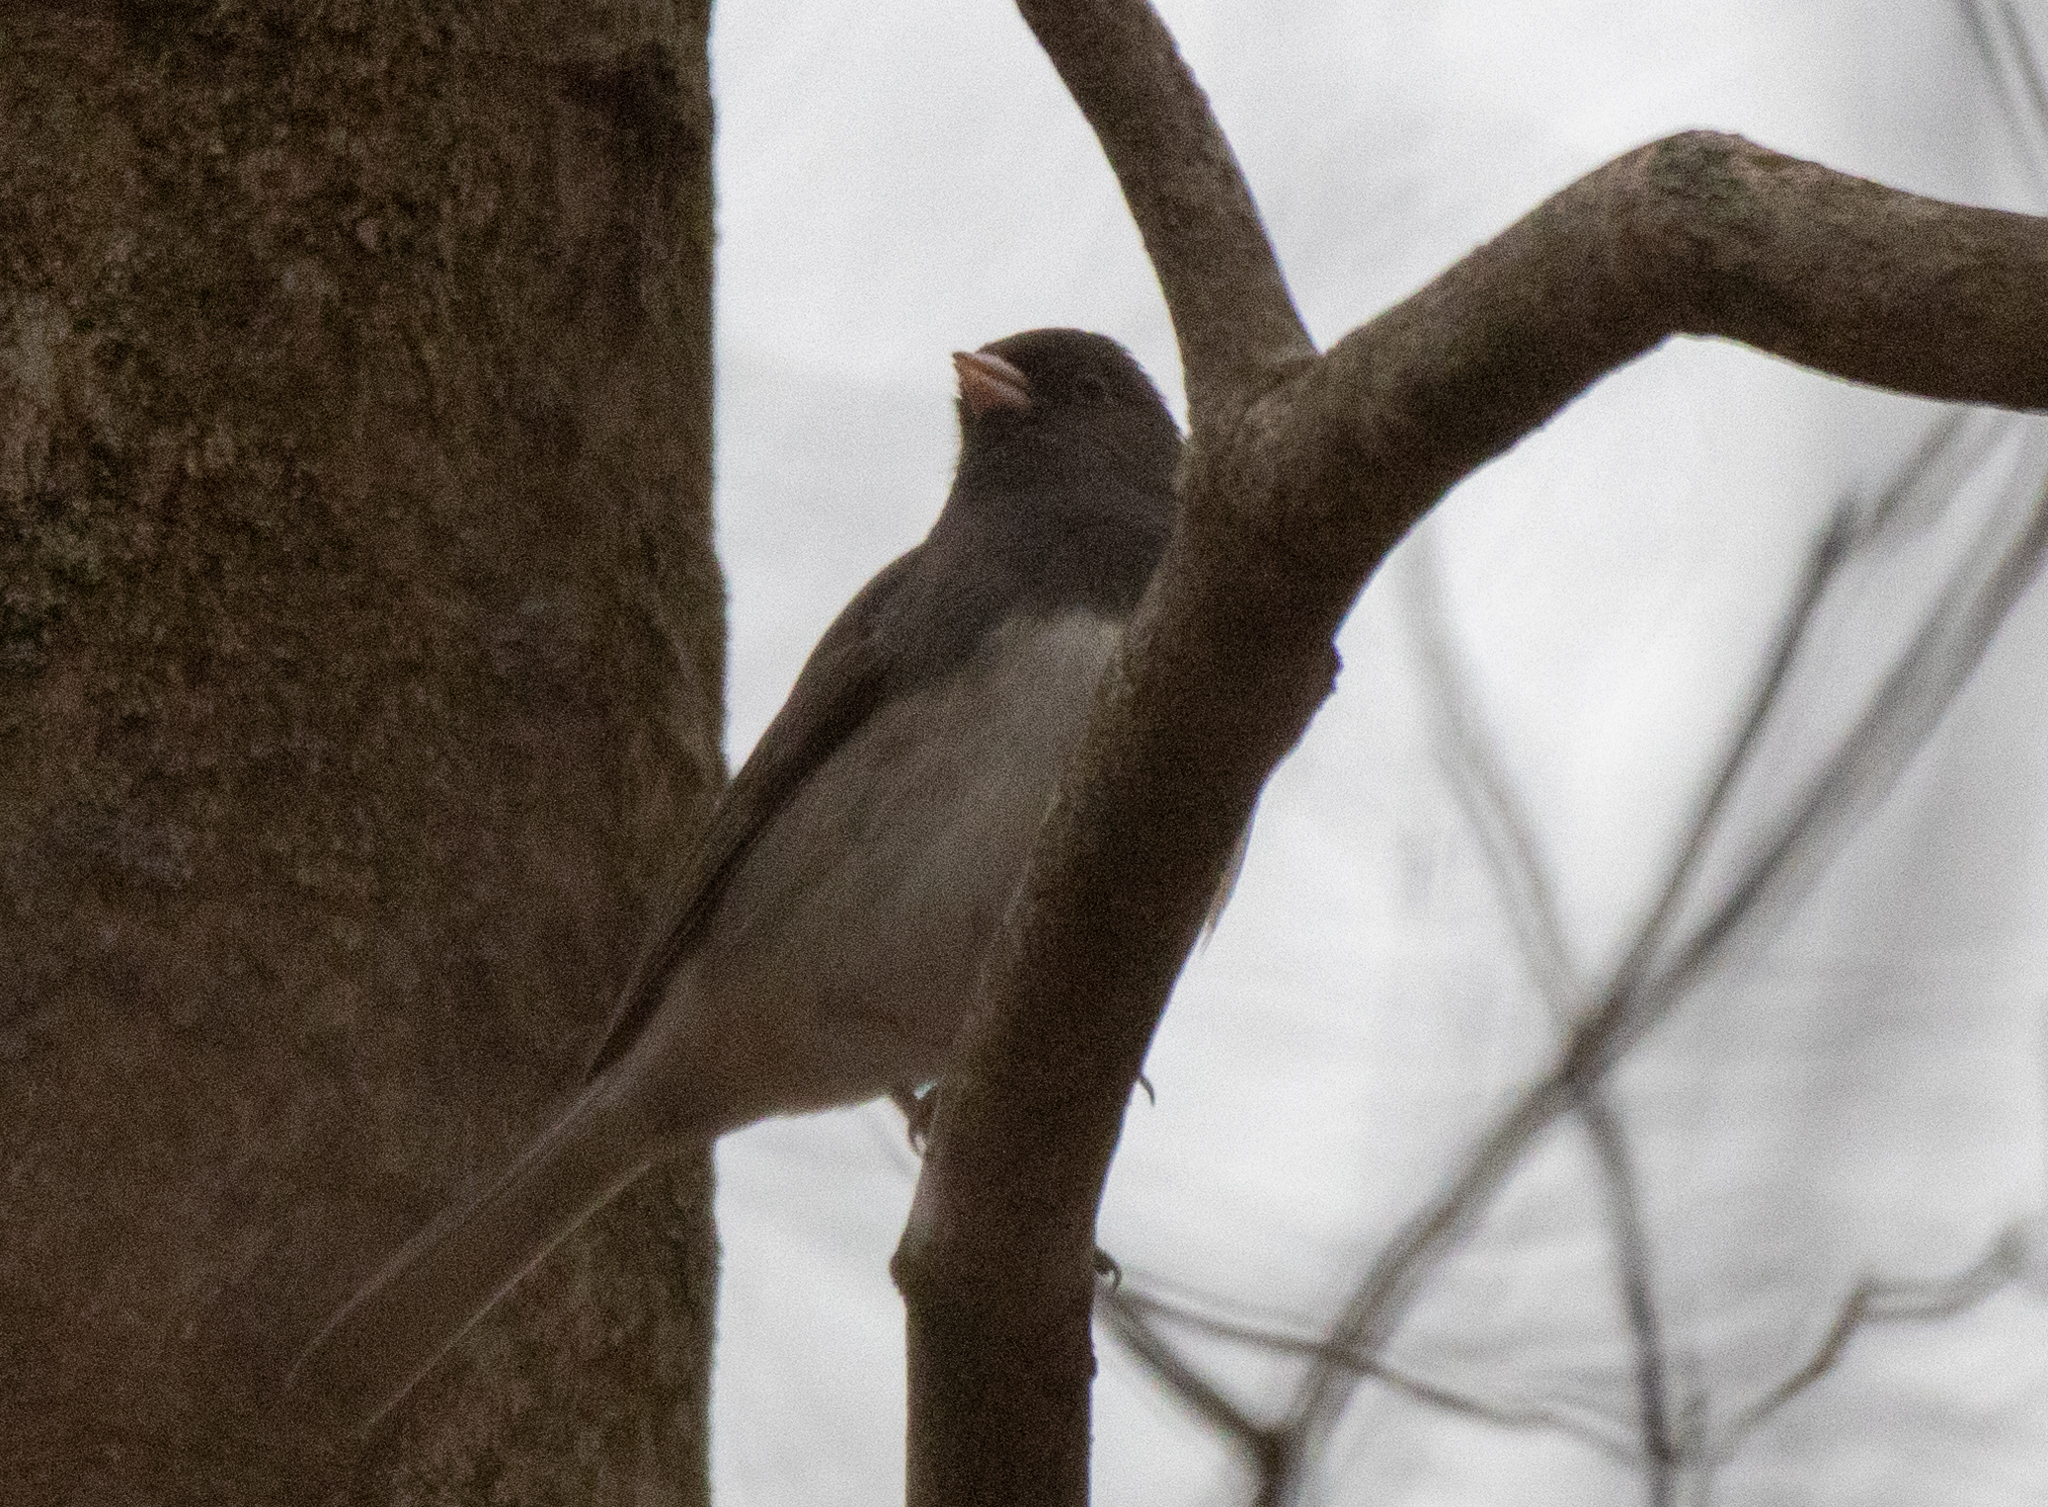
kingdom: Animalia
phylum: Chordata
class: Aves
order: Passeriformes
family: Passerellidae
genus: Junco
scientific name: Junco hyemalis
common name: Dark-eyed junco
